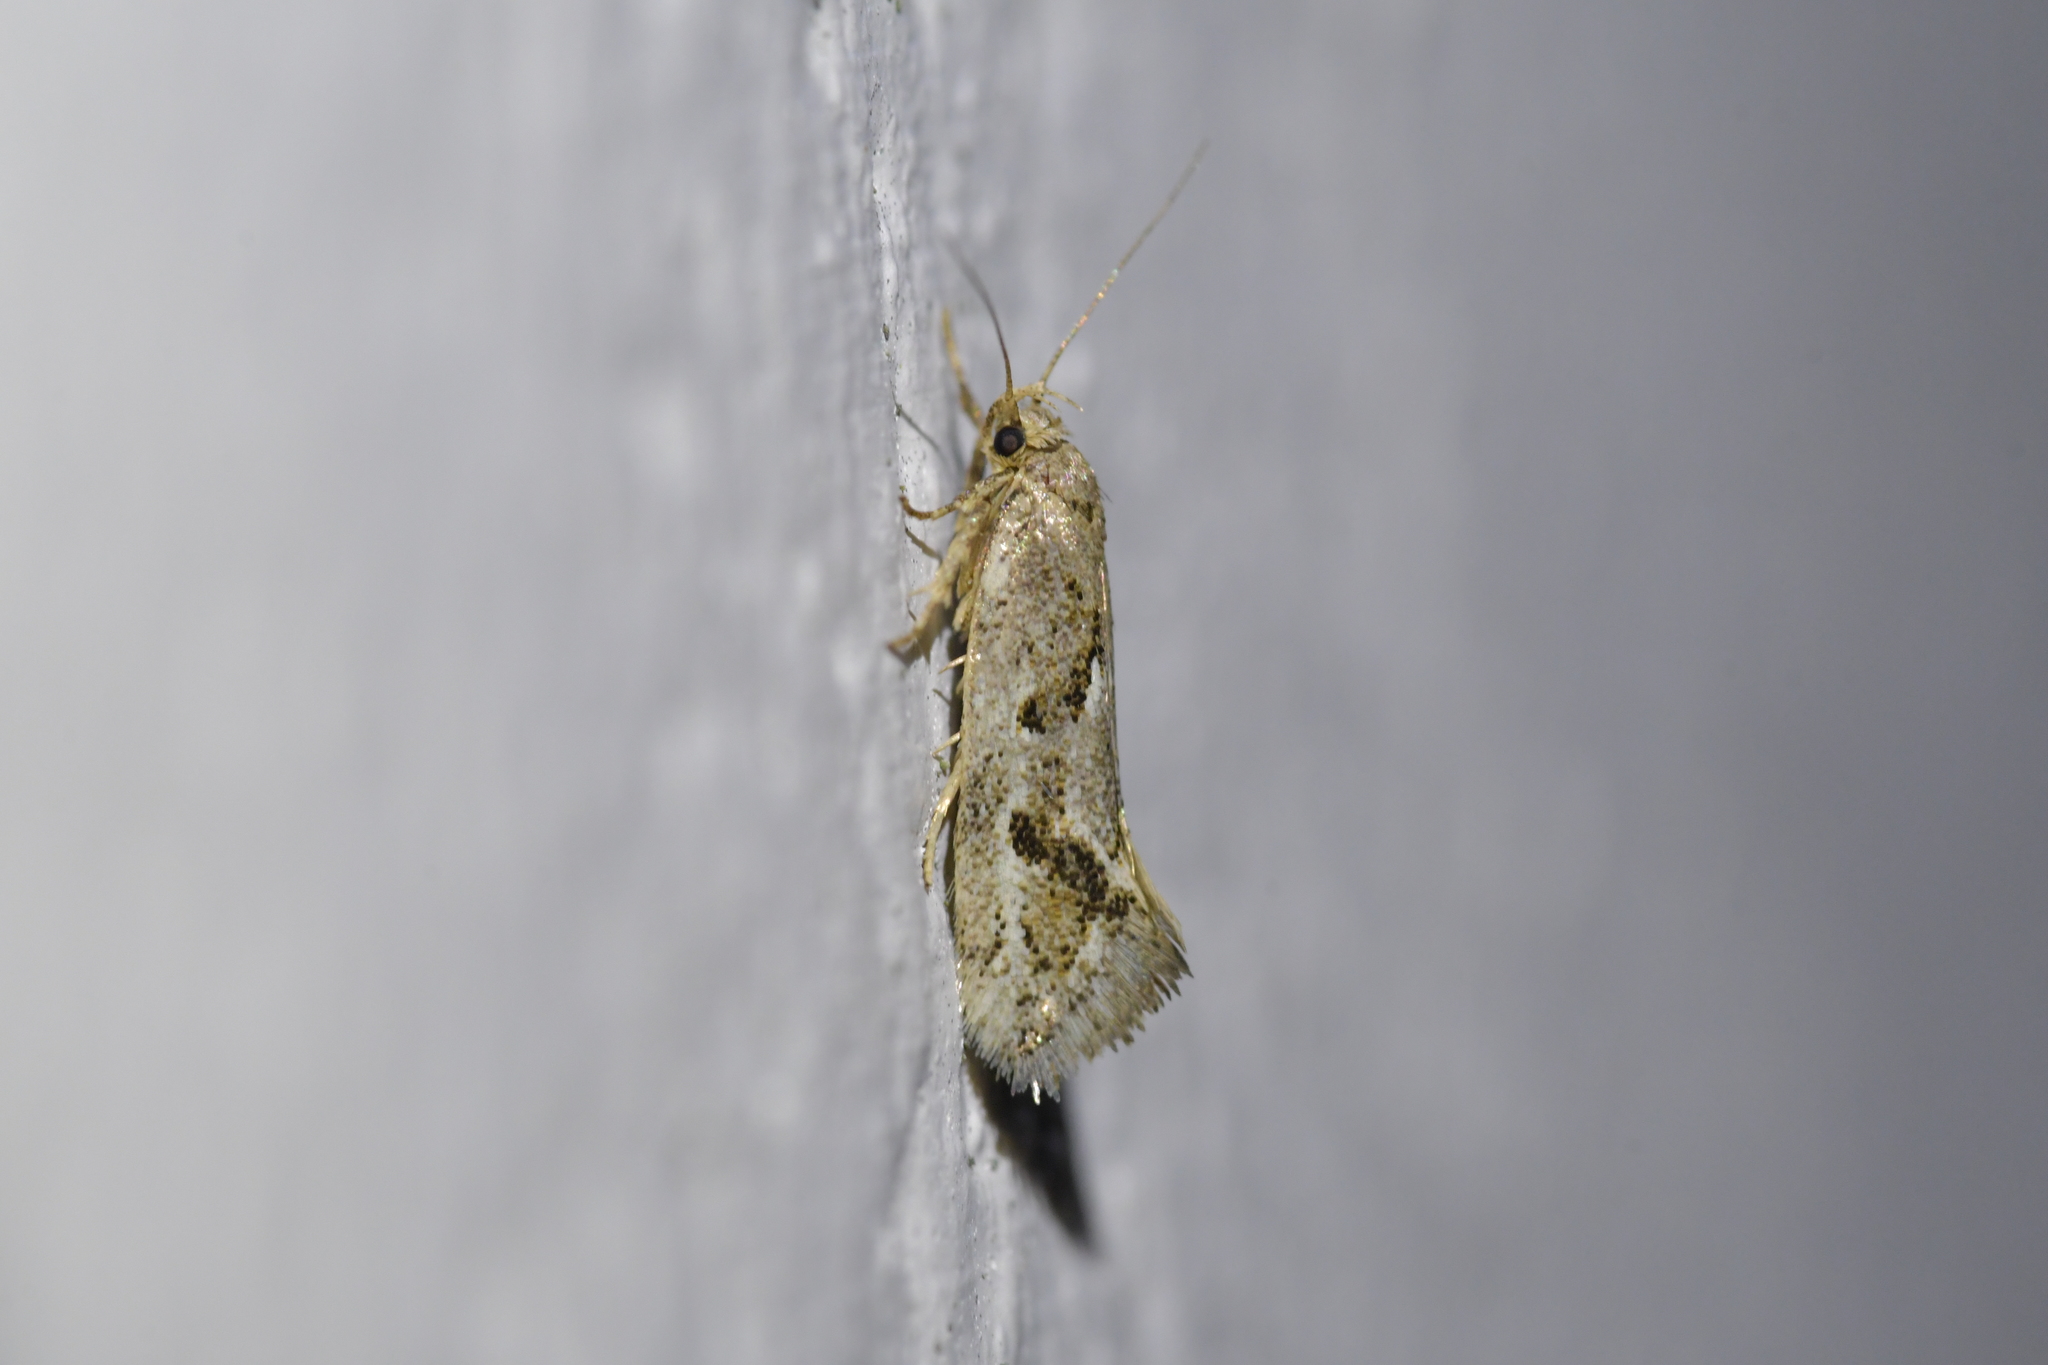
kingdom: Animalia
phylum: Arthropoda
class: Insecta
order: Lepidoptera
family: Oecophoridae
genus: Tingena
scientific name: Tingena hemimochla
